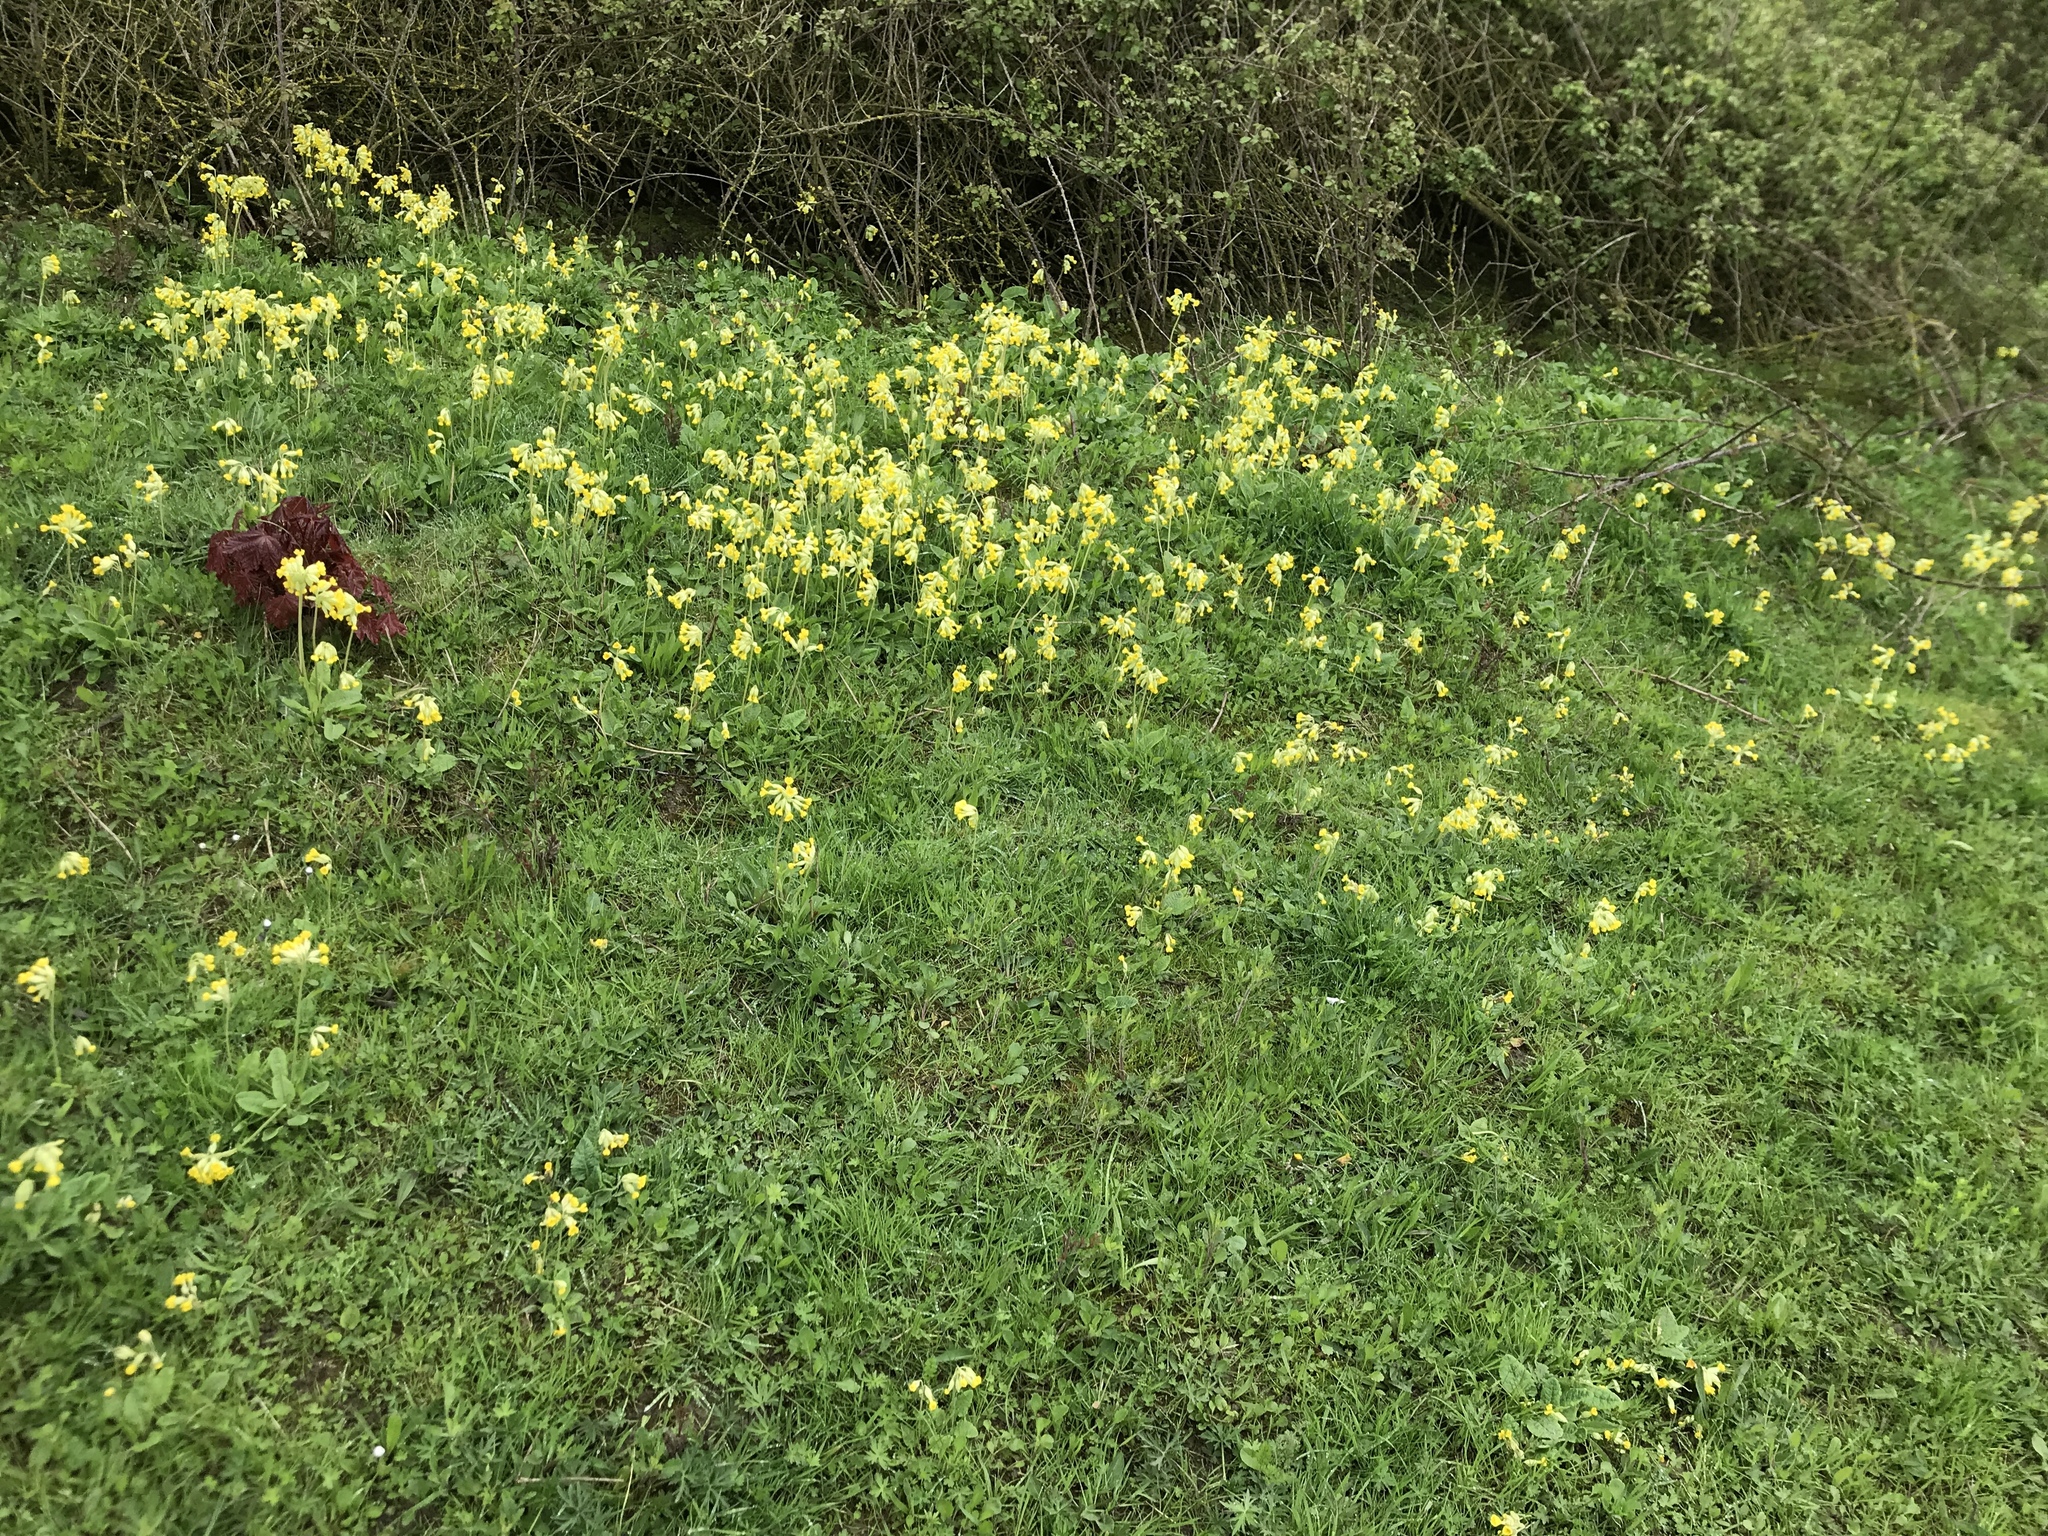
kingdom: Plantae
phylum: Tracheophyta
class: Magnoliopsida
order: Ericales
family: Primulaceae
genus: Primula
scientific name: Primula veris
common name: Cowslip
